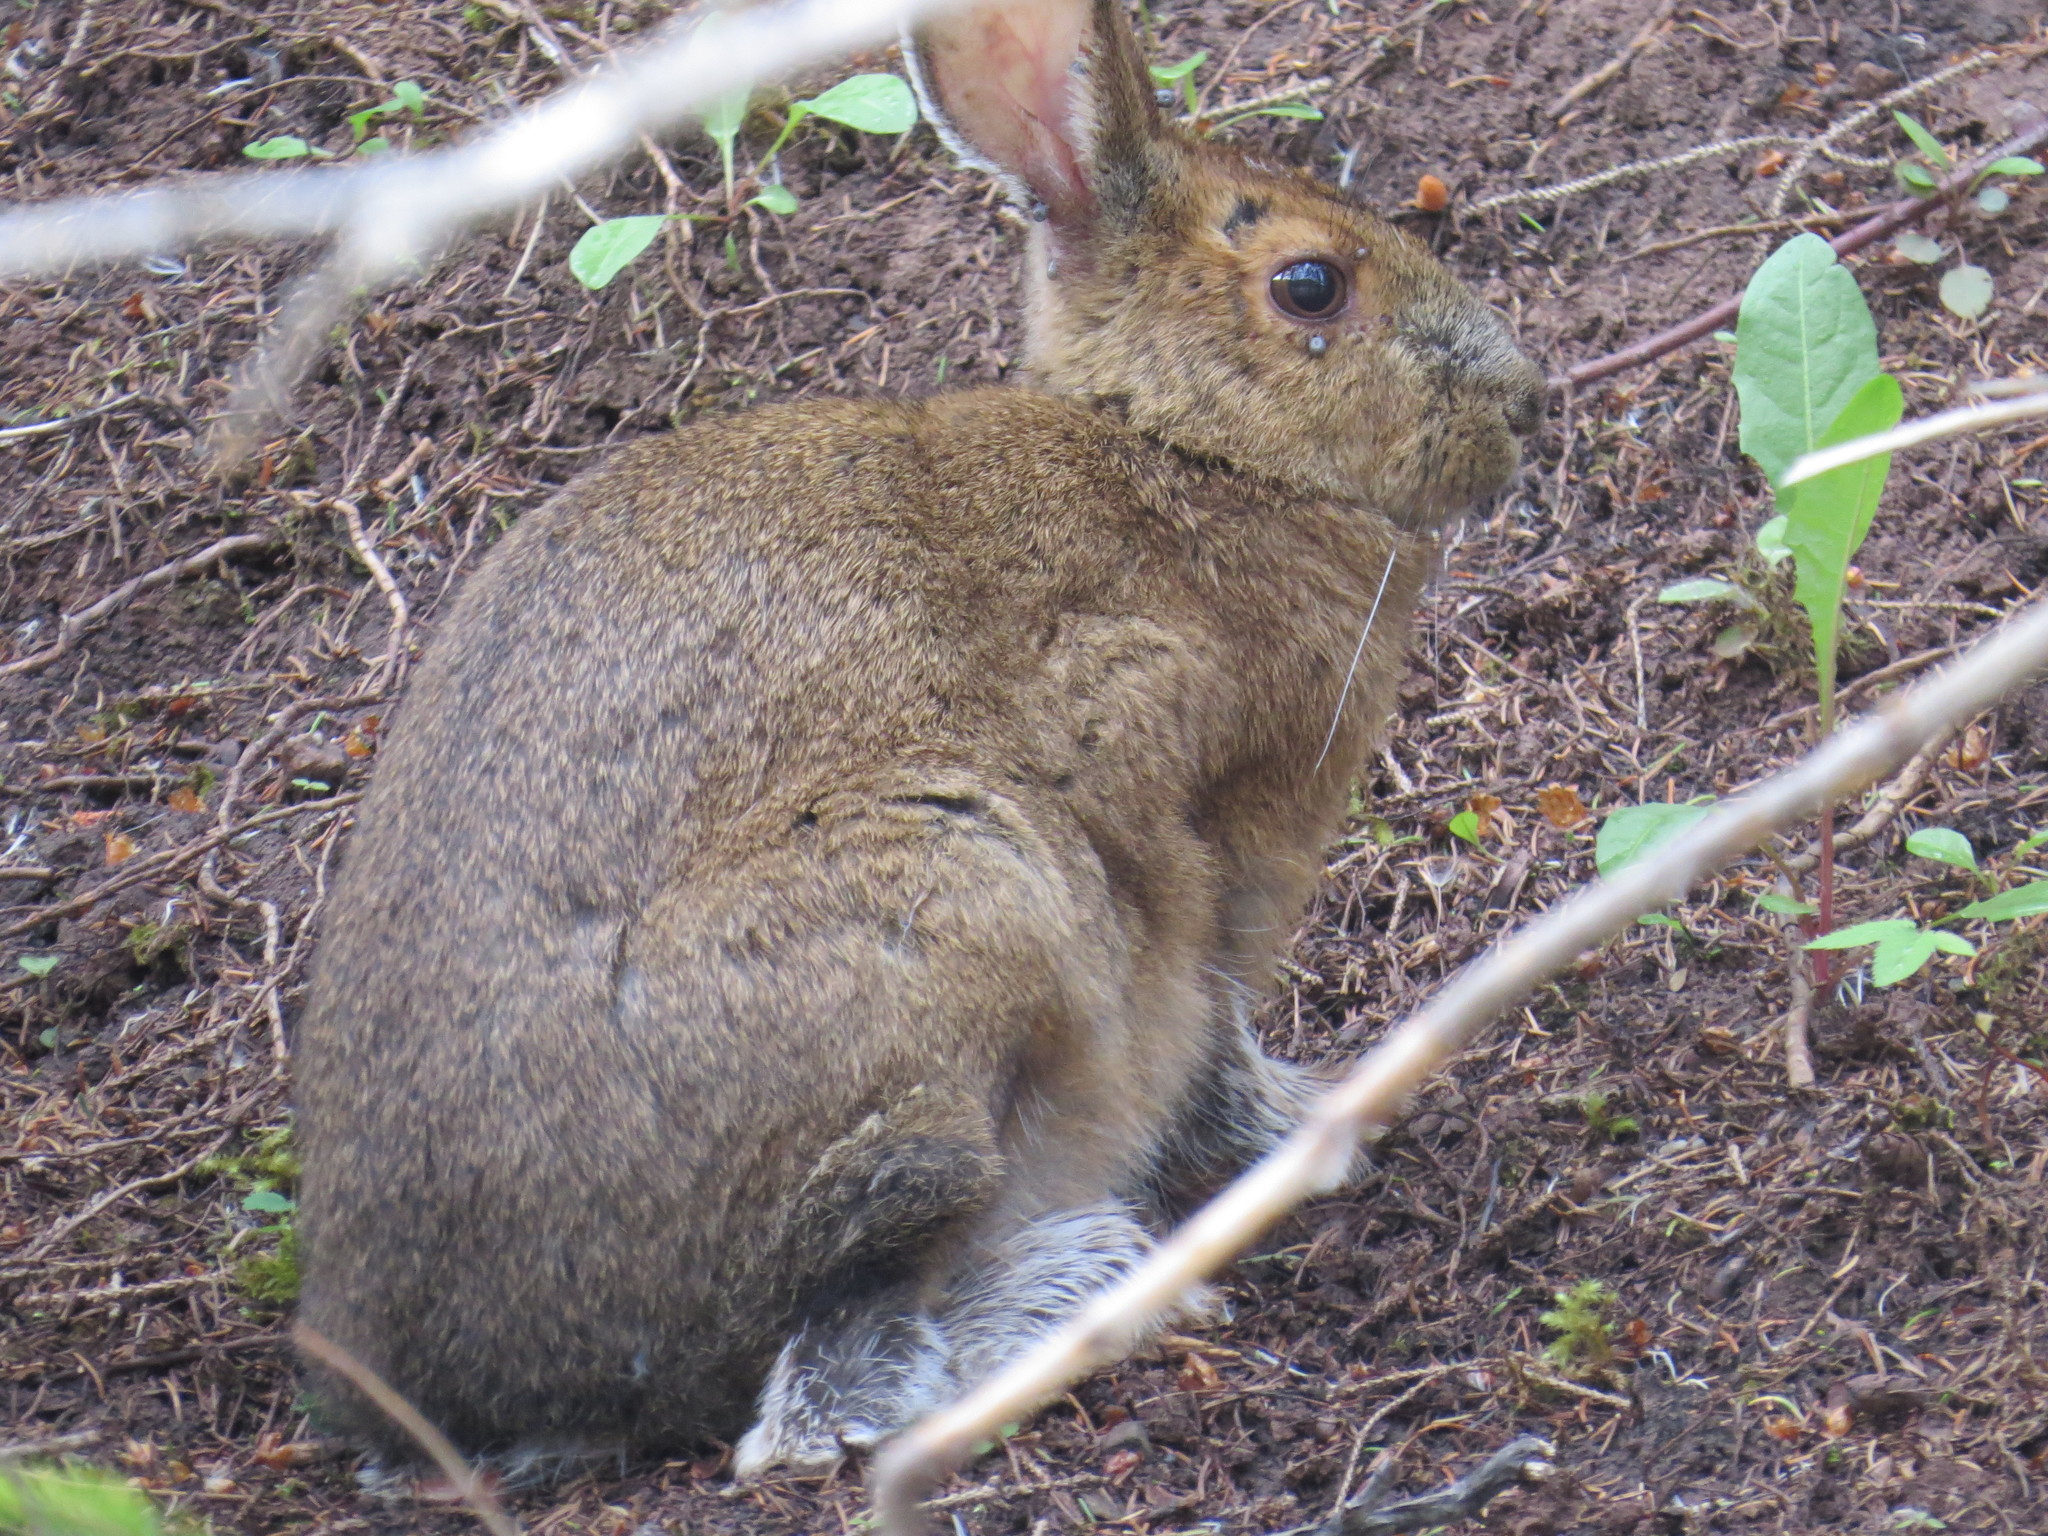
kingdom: Animalia
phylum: Chordata
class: Mammalia
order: Lagomorpha
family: Leporidae
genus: Lepus
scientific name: Lepus americanus
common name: Snowshoe hare
